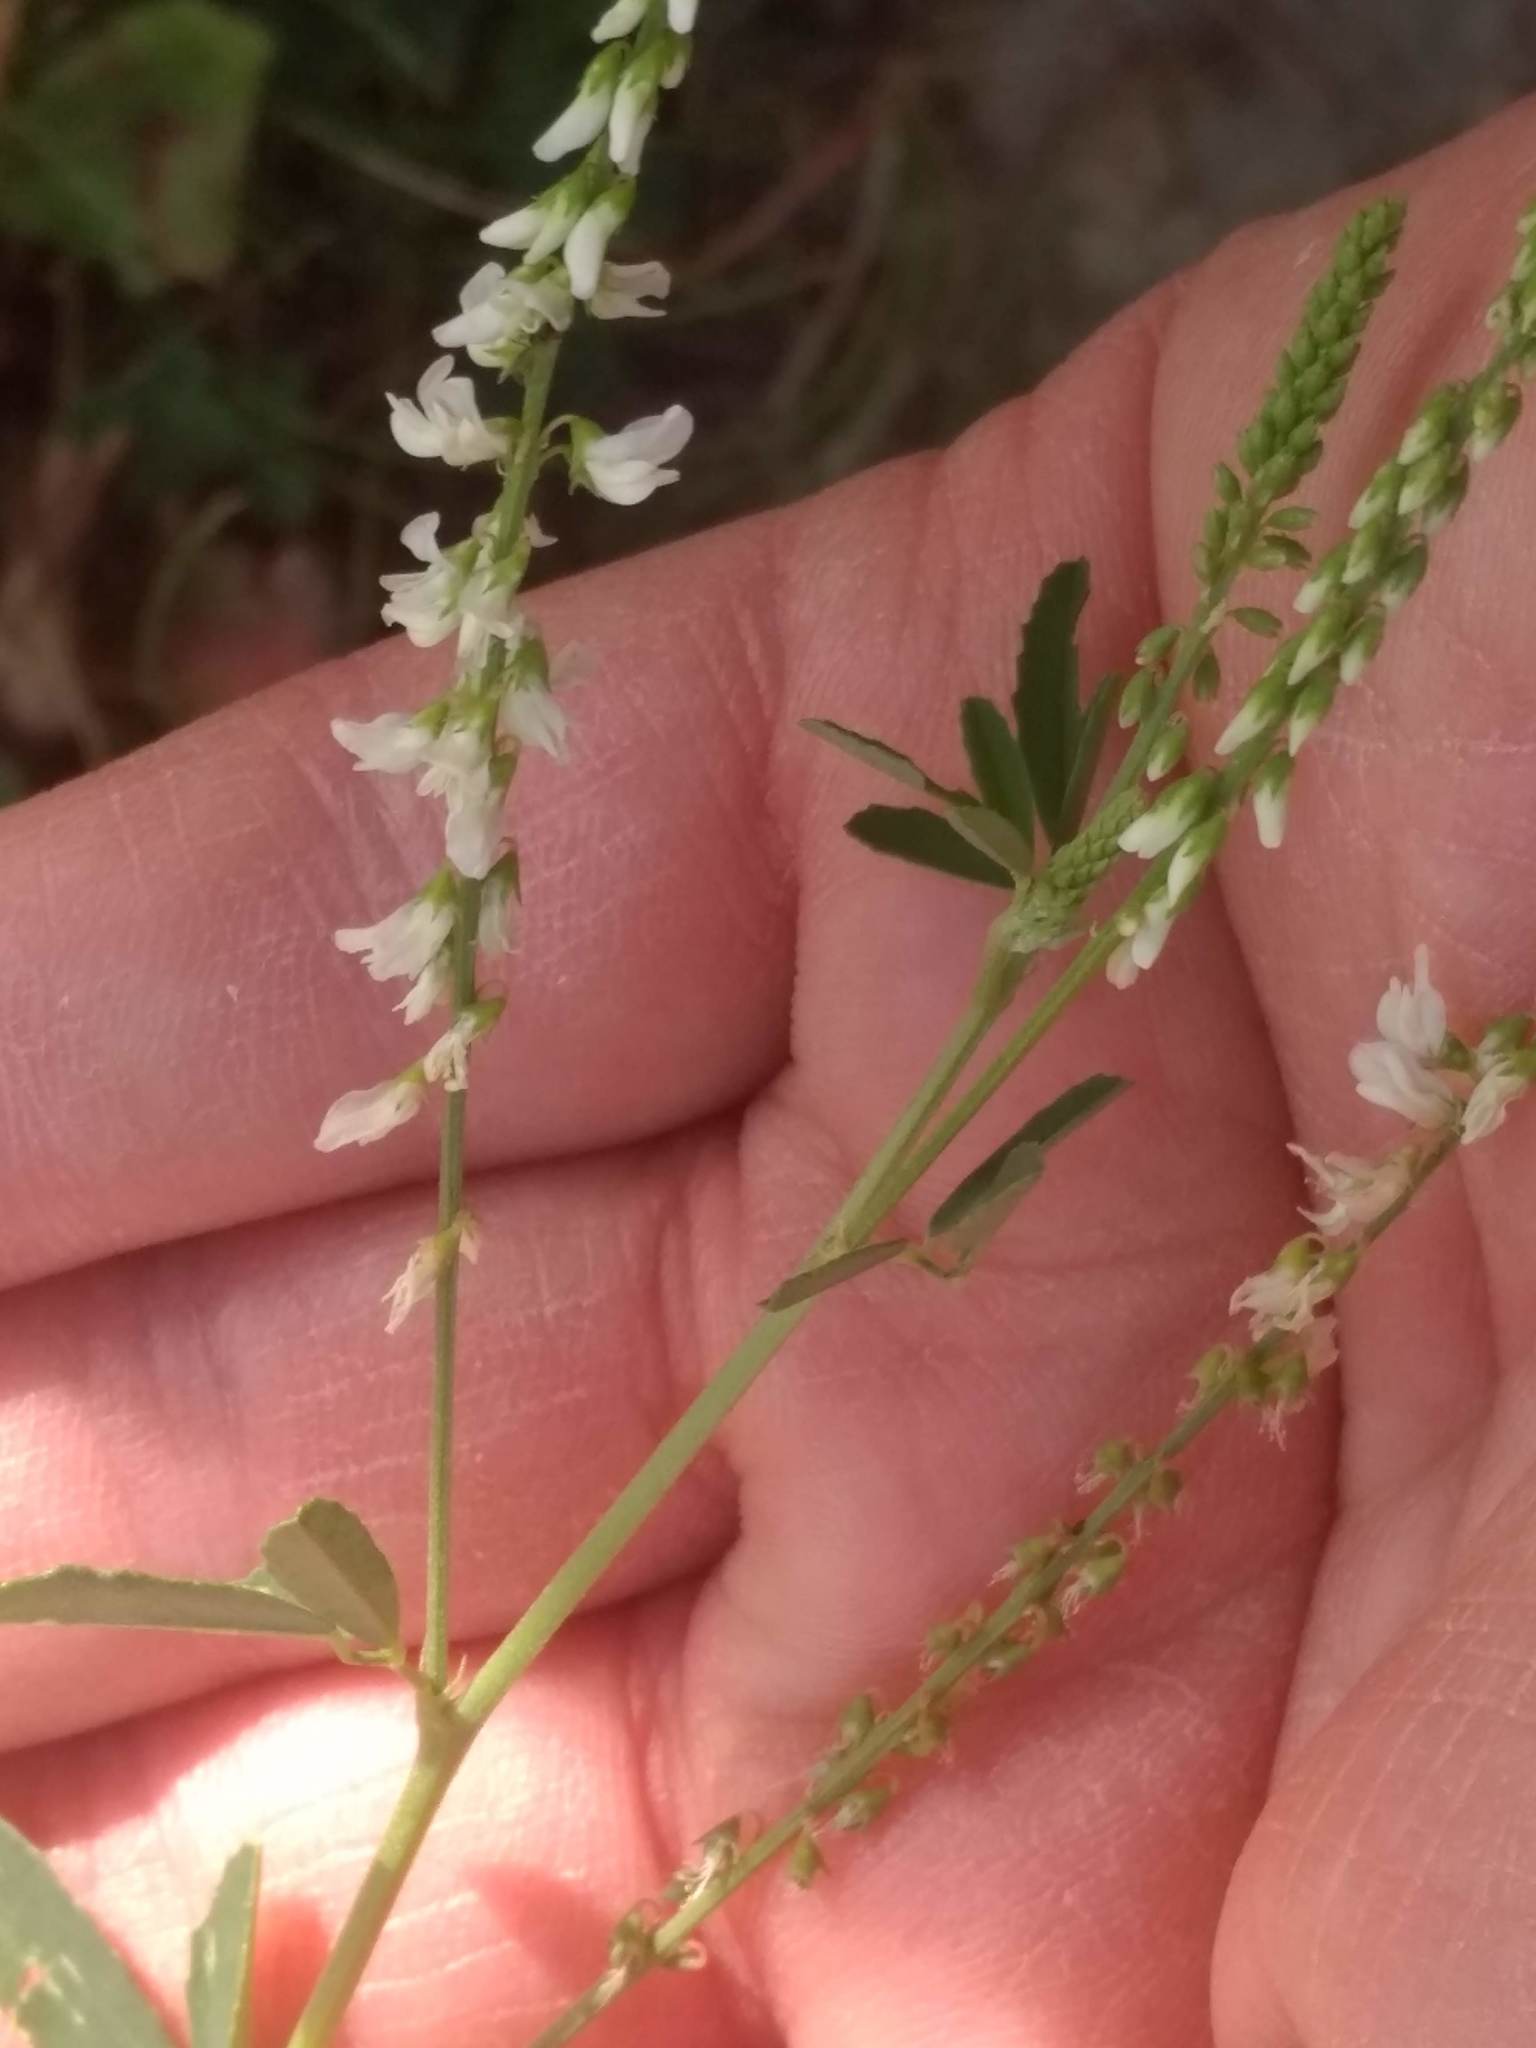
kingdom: Plantae
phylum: Tracheophyta
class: Magnoliopsida
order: Fabales
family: Fabaceae
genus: Melilotus
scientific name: Melilotus albus
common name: White melilot
